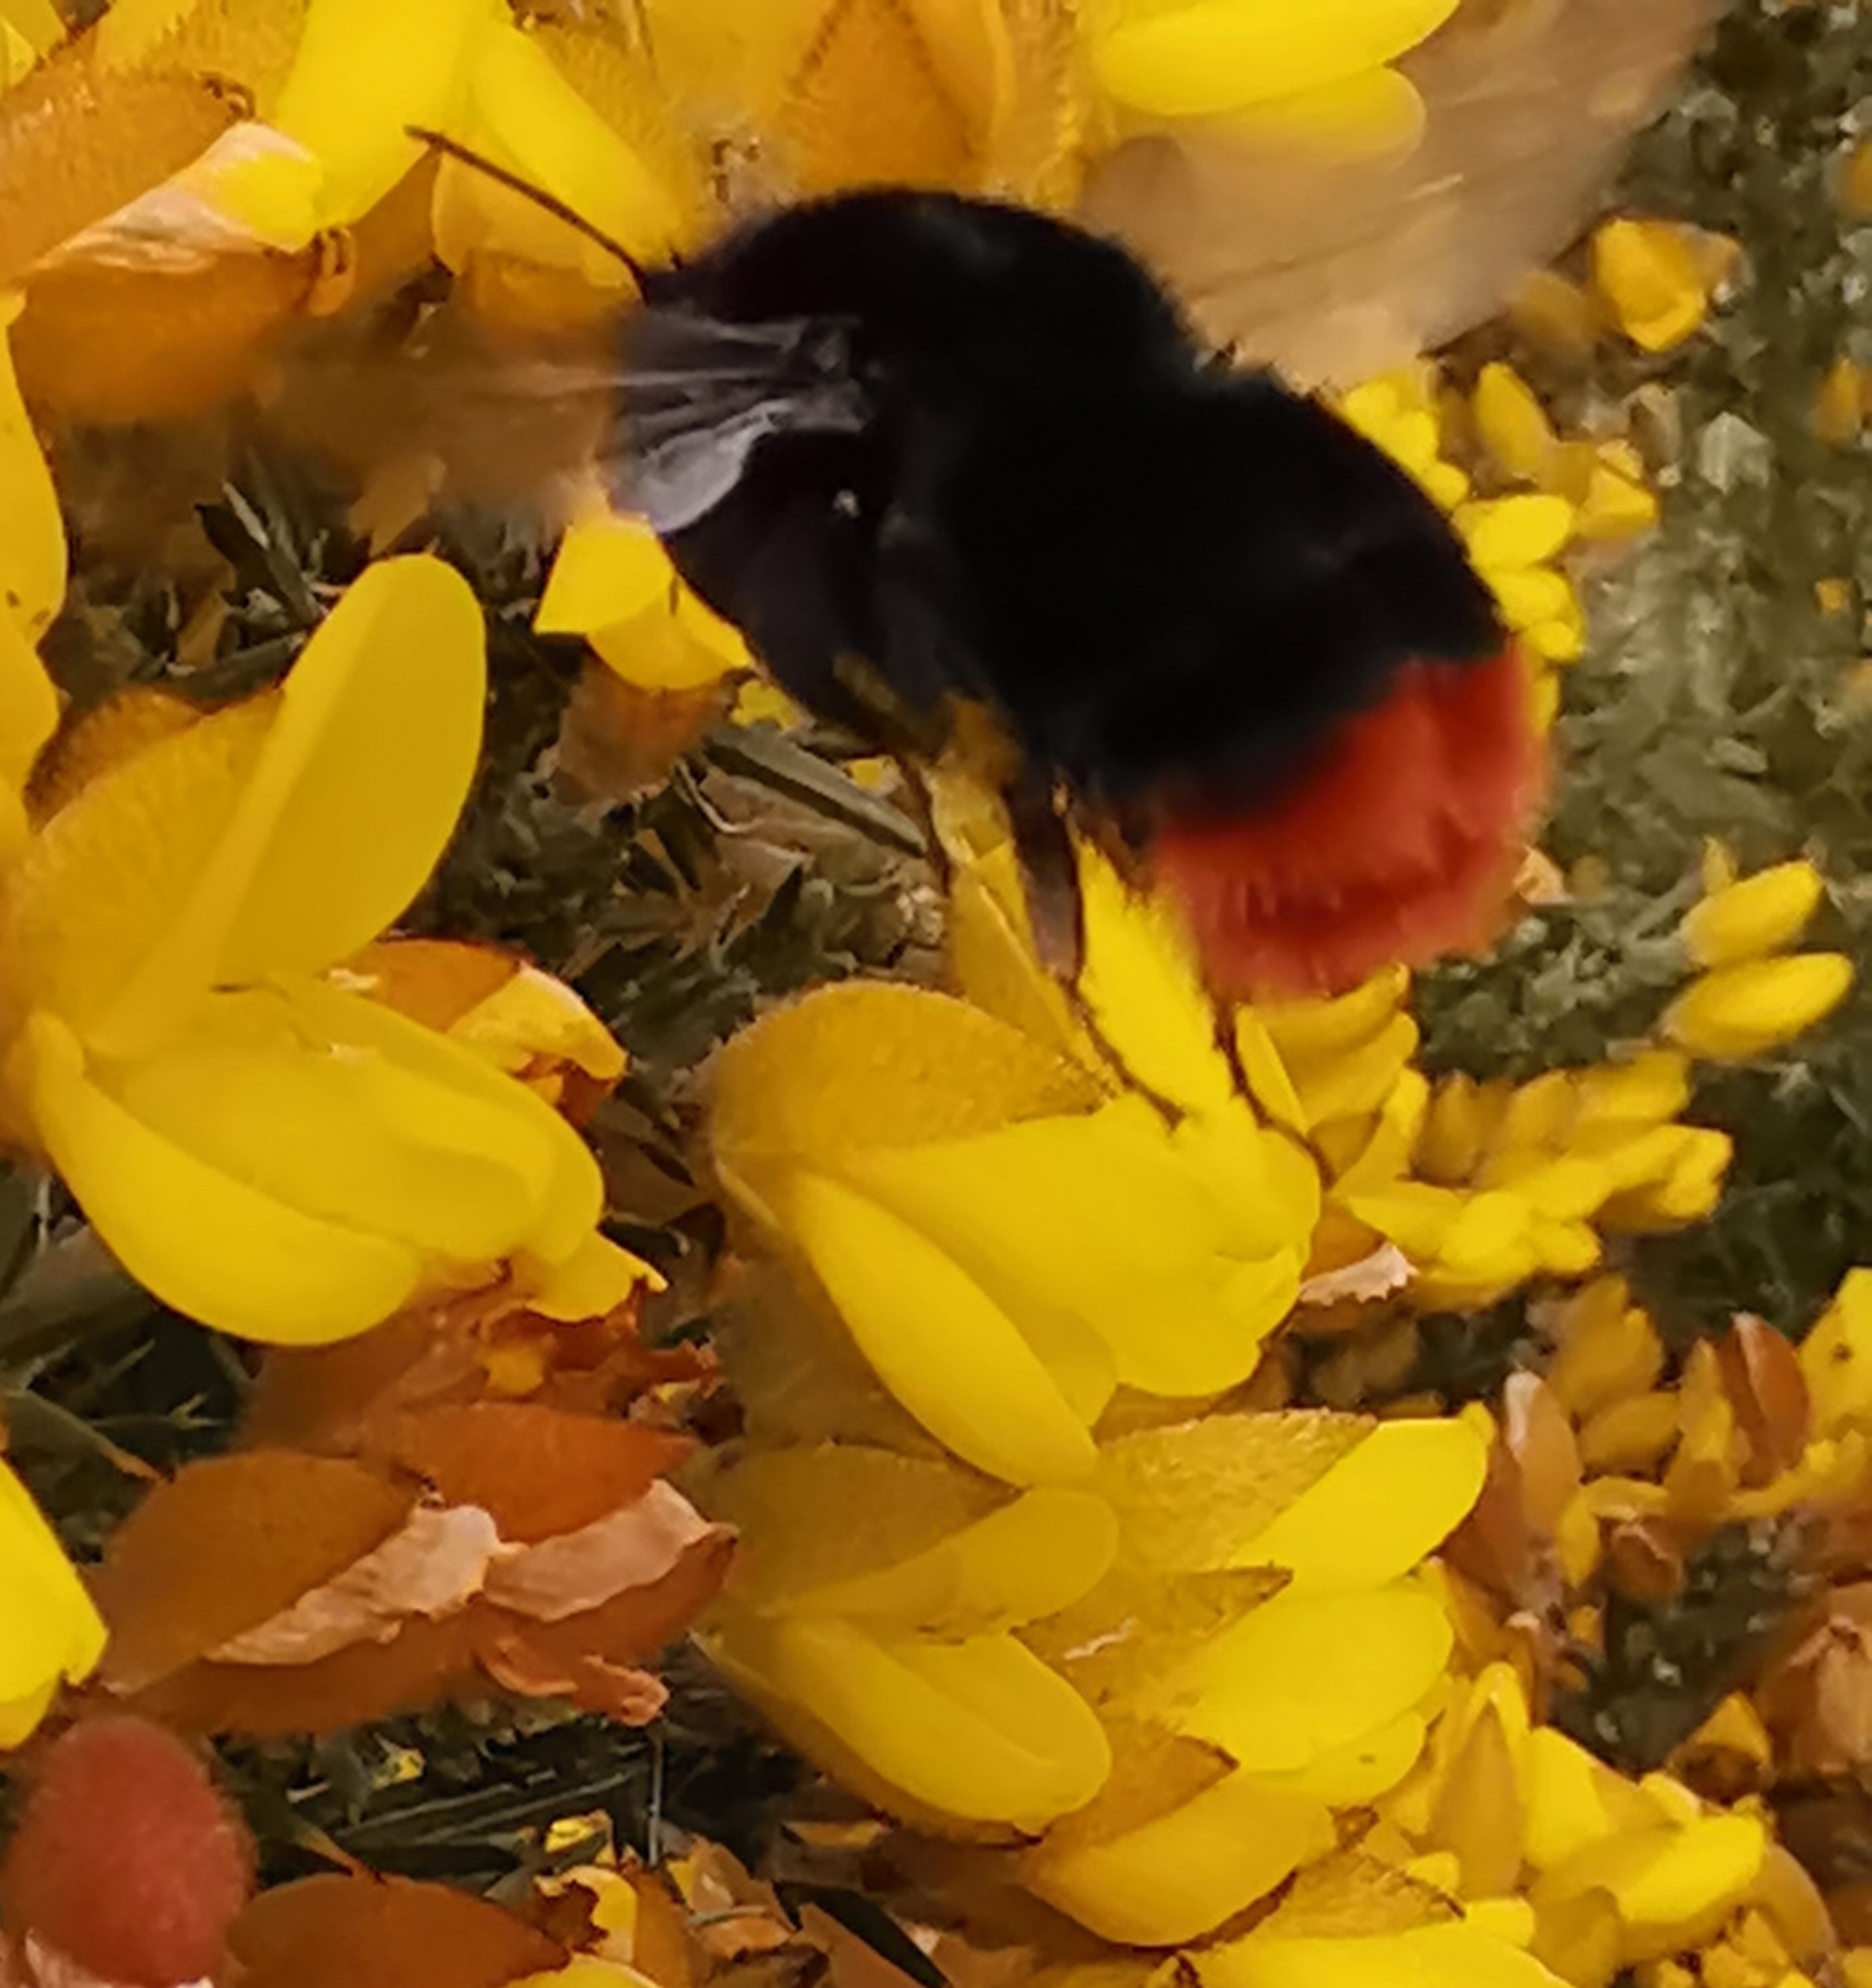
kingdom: Animalia
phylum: Arthropoda
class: Insecta
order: Hymenoptera
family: Apidae
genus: Bombus
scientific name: Bombus lapidarius
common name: Large red-tailed humble-bee
